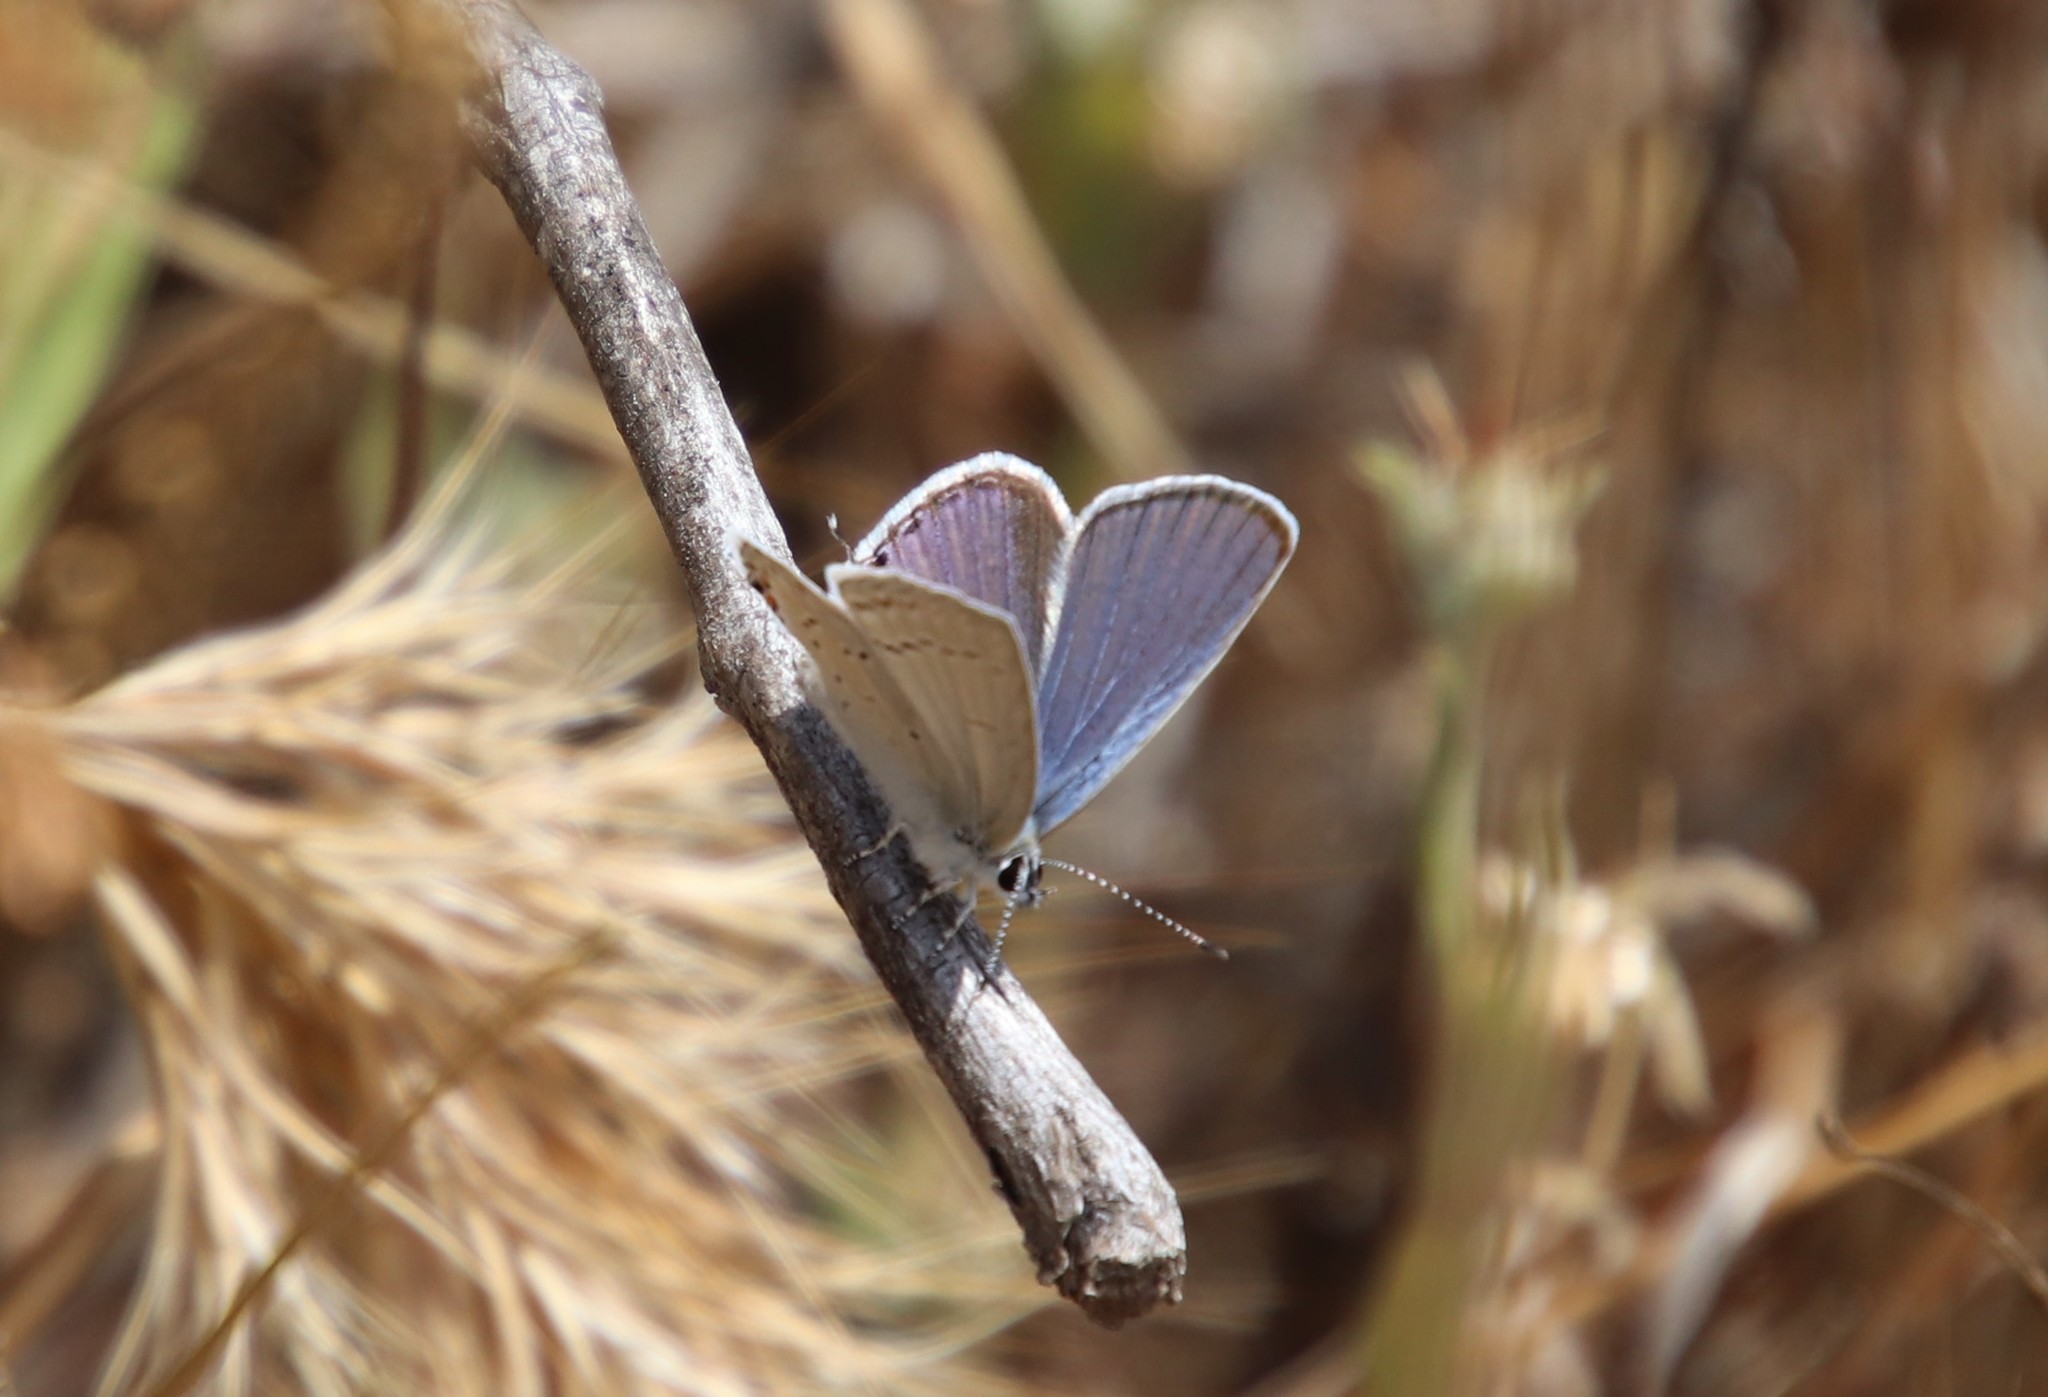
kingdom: Animalia
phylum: Arthropoda
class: Insecta
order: Lepidoptera
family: Lycaenidae
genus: Elkalyce
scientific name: Elkalyce amyntula
